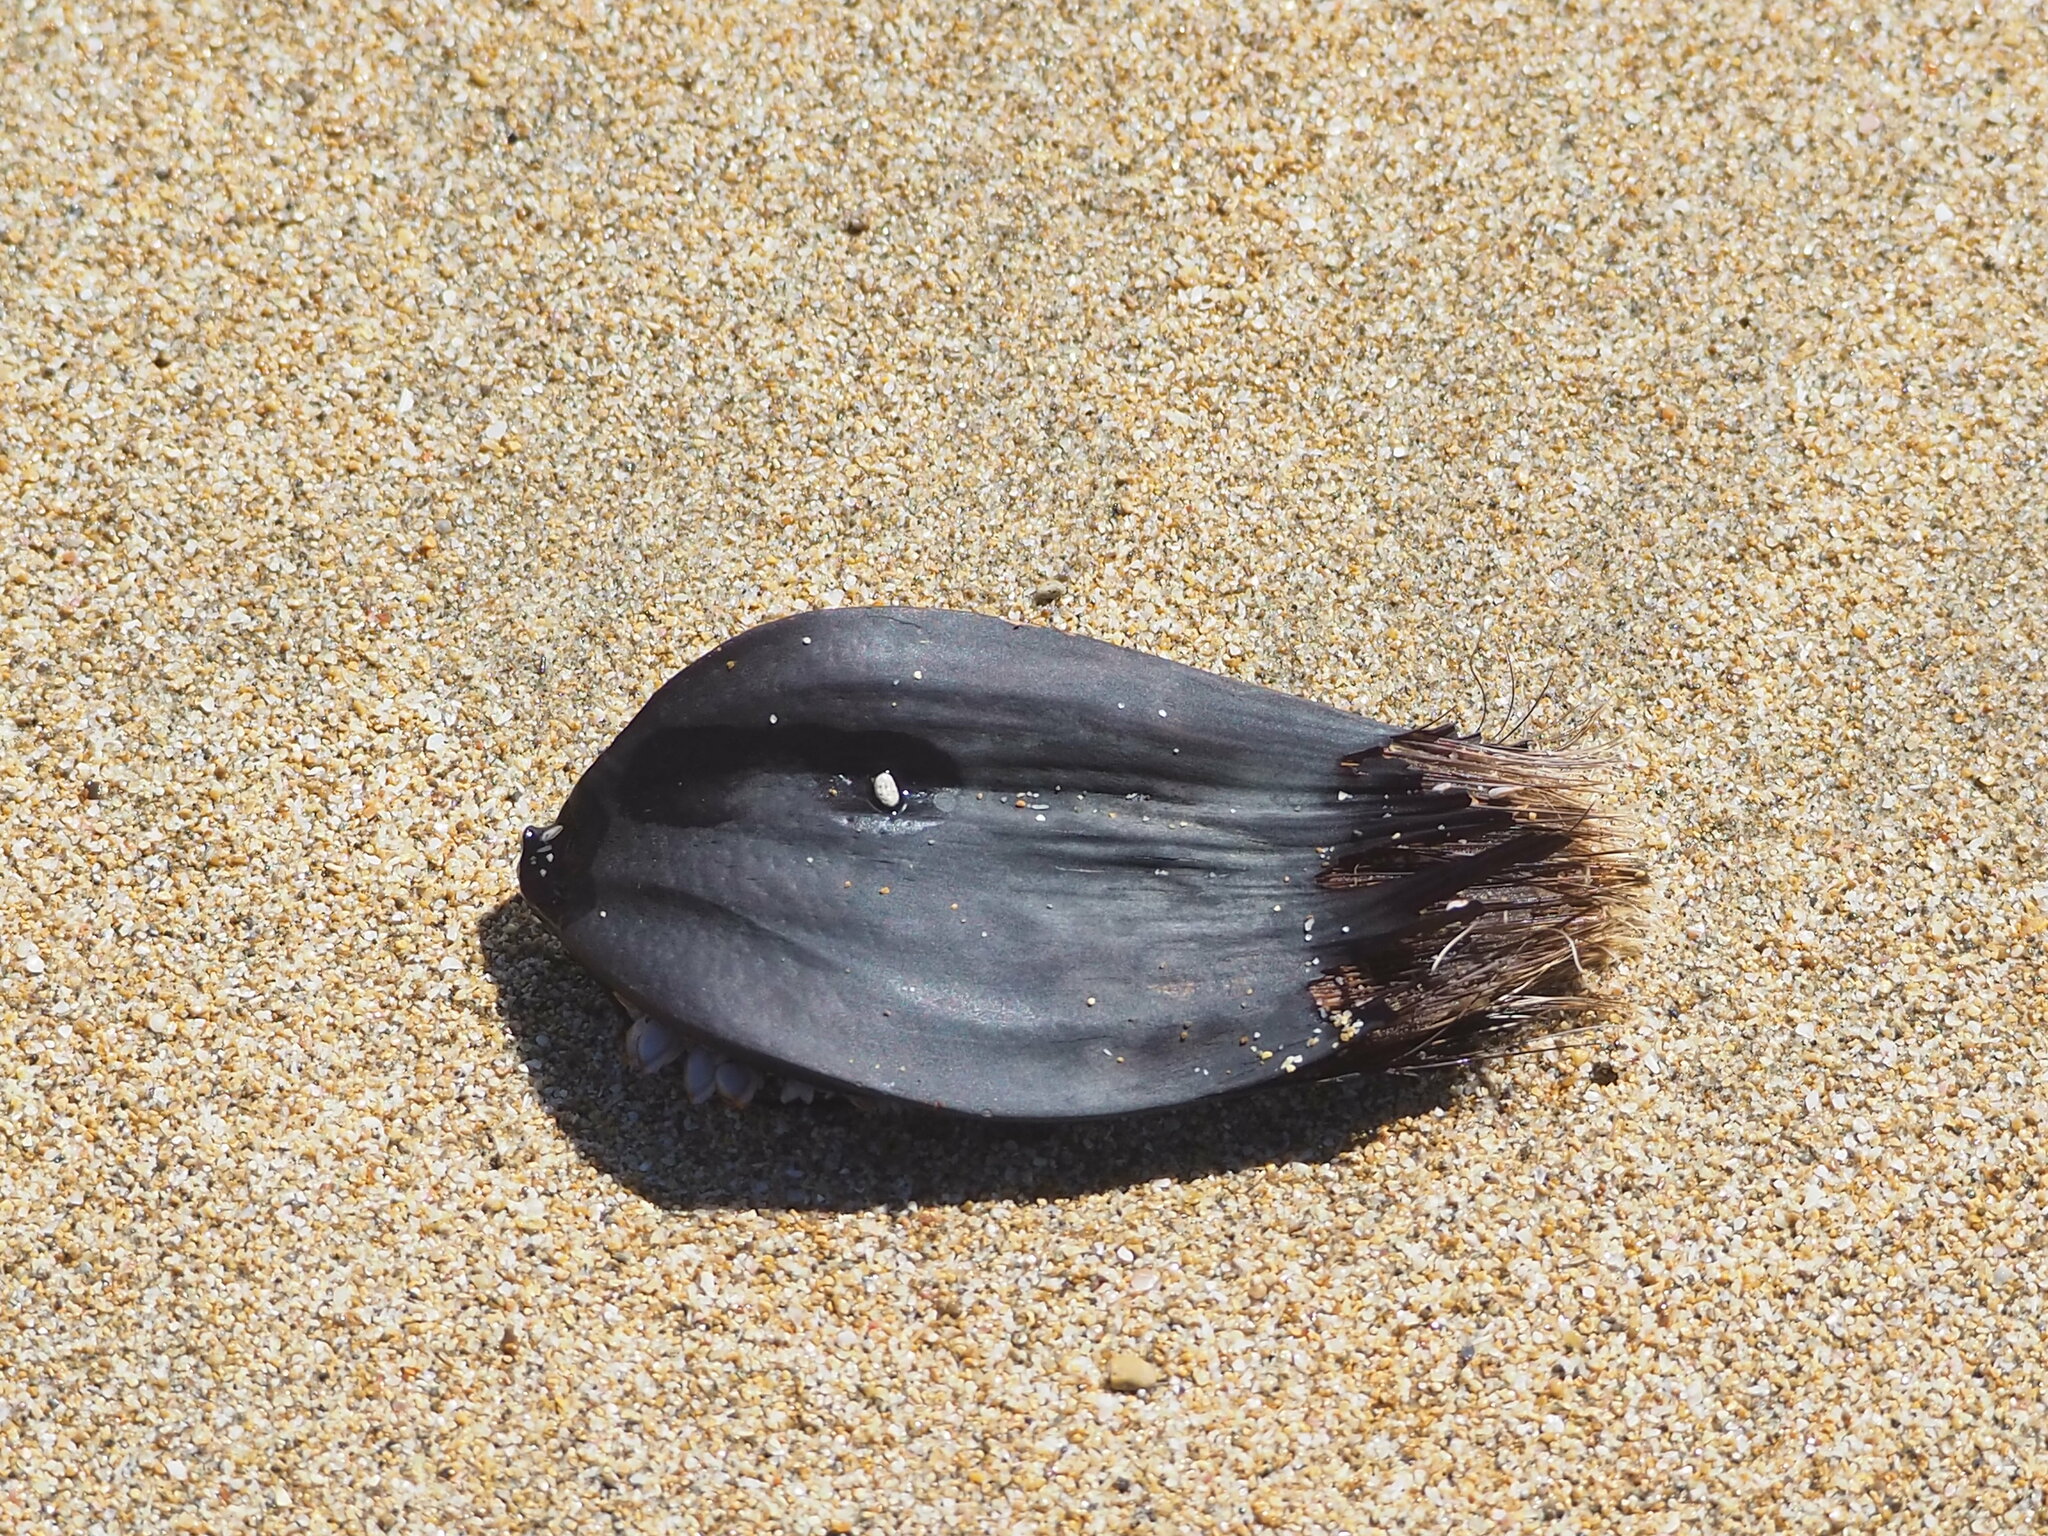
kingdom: Plantae
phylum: Tracheophyta
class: Liliopsida
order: Arecales
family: Arecaceae
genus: Nypa
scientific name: Nypa fruticans
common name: Mangrove palm
